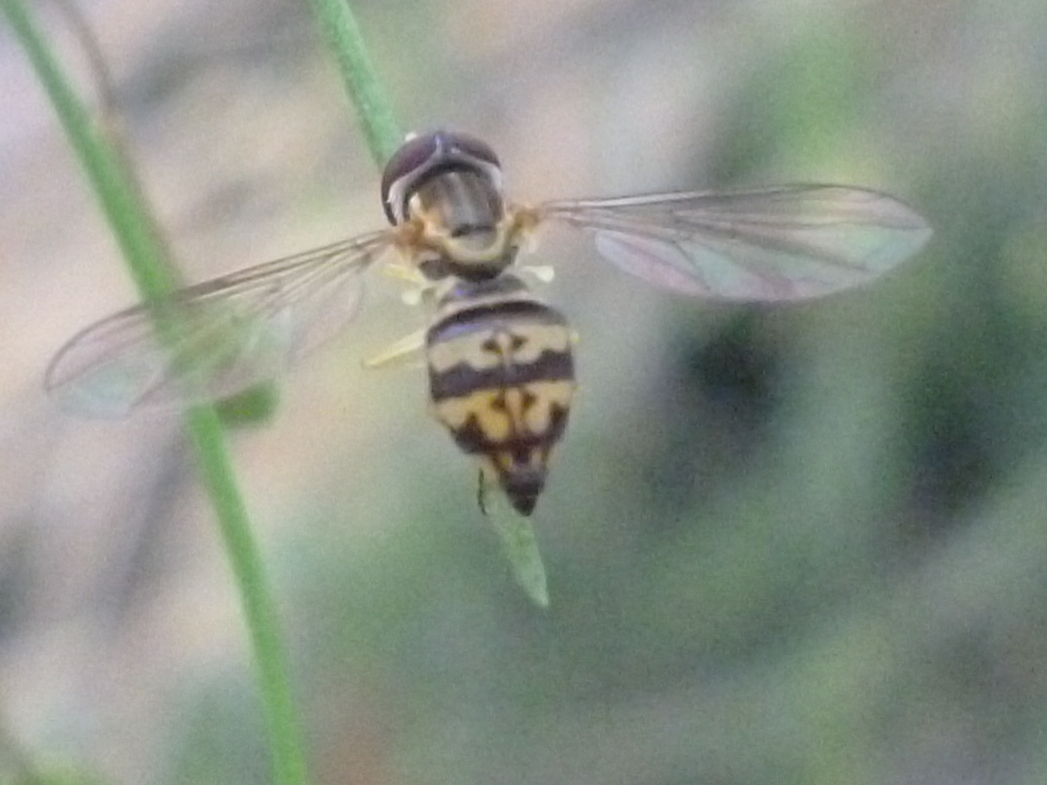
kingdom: Animalia
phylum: Arthropoda
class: Insecta
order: Diptera
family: Syrphidae
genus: Toxomerus
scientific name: Toxomerus geminatus
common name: Eastern calligrapher
